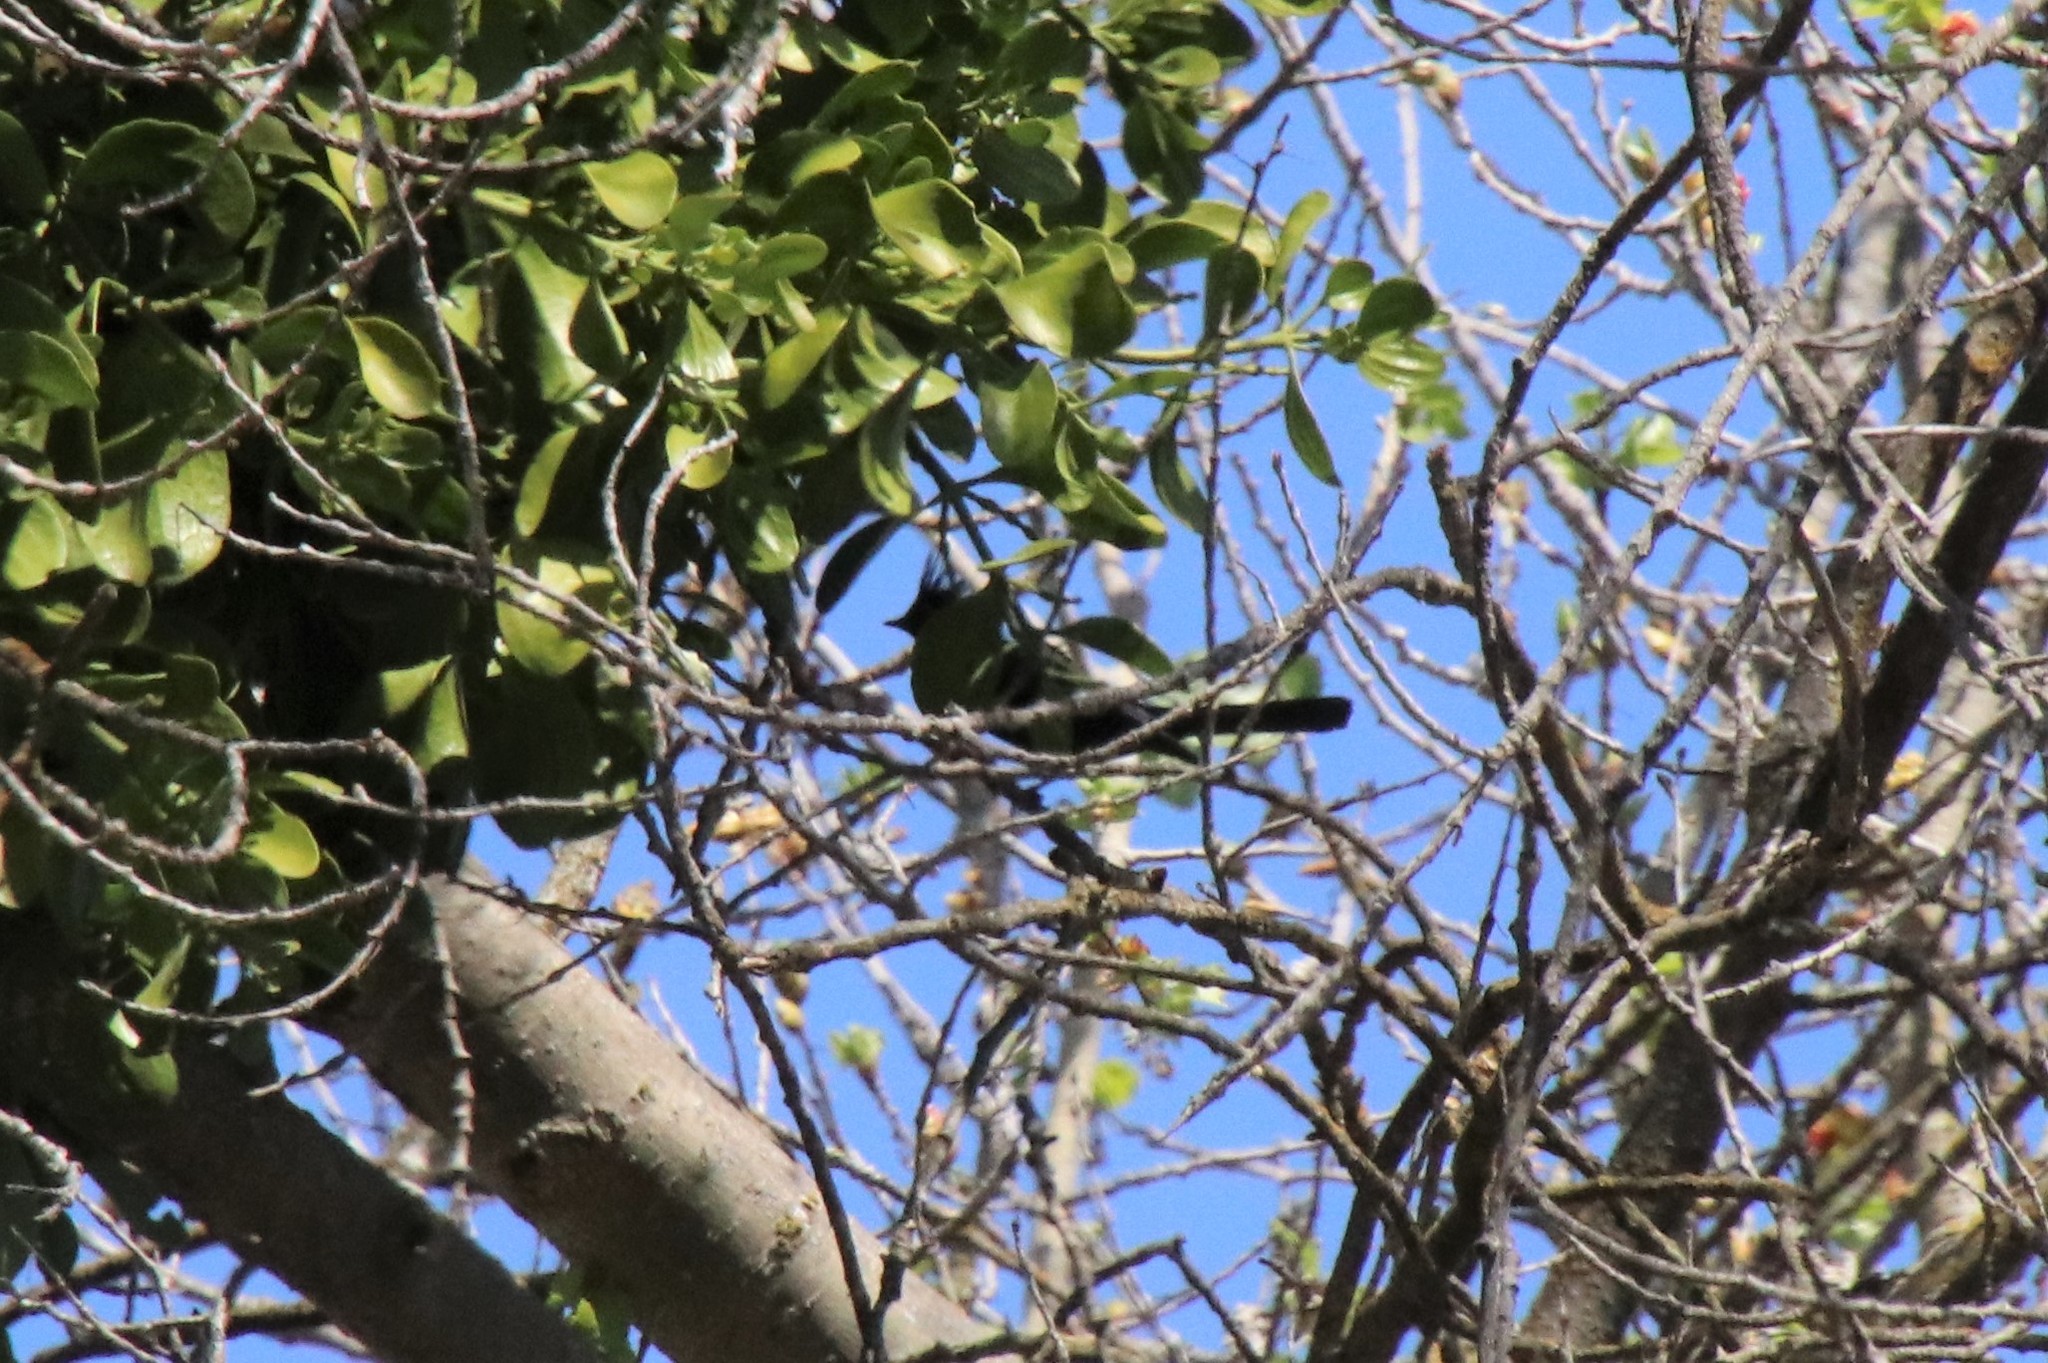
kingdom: Animalia
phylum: Chordata
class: Aves
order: Passeriformes
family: Ptilogonatidae
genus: Phainopepla
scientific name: Phainopepla nitens
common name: Phainopepla
